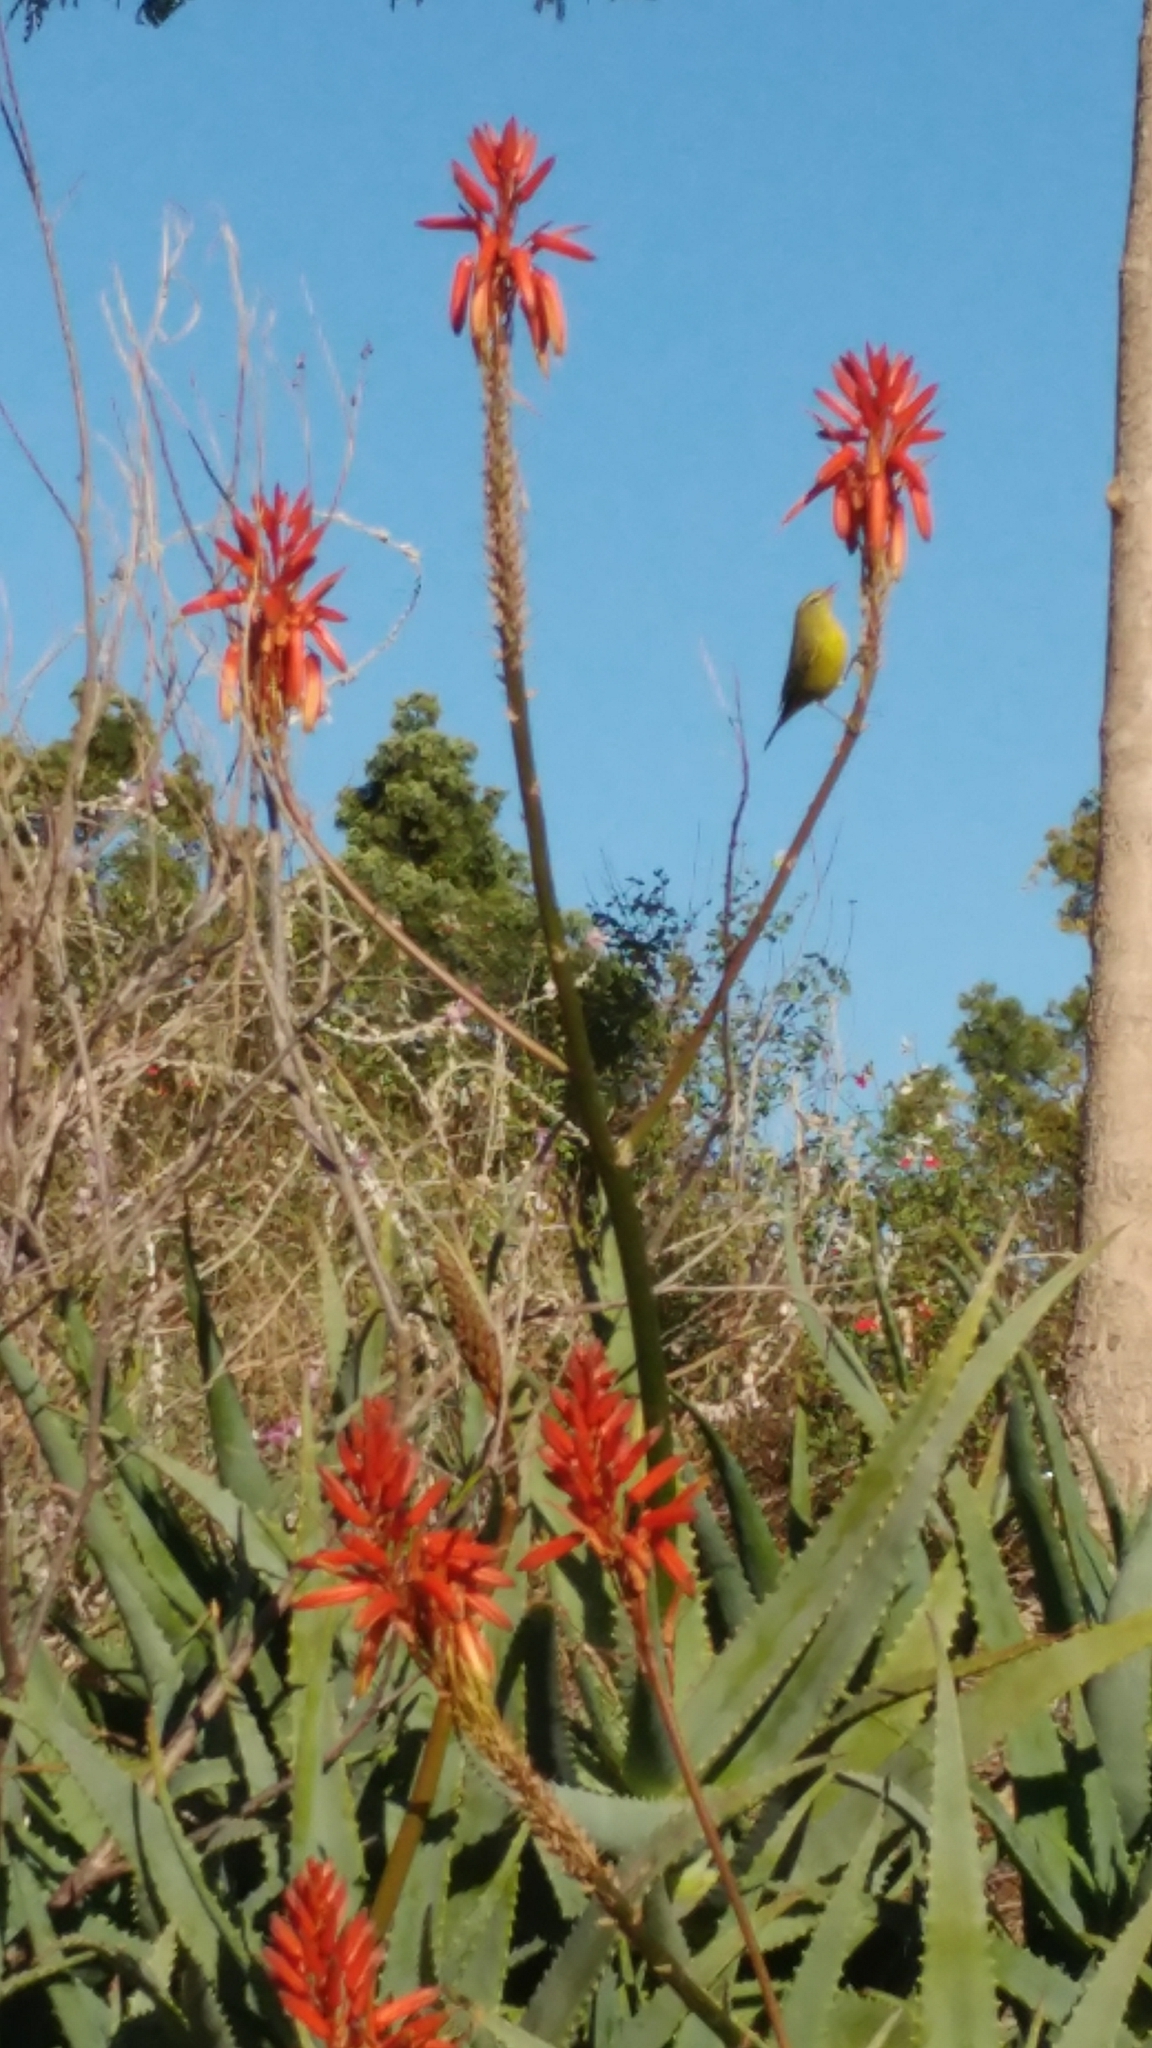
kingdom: Animalia
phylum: Chordata
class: Aves
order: Passeriformes
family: Parulidae
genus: Leiothlypis
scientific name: Leiothlypis celata
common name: Orange-crowned warbler
